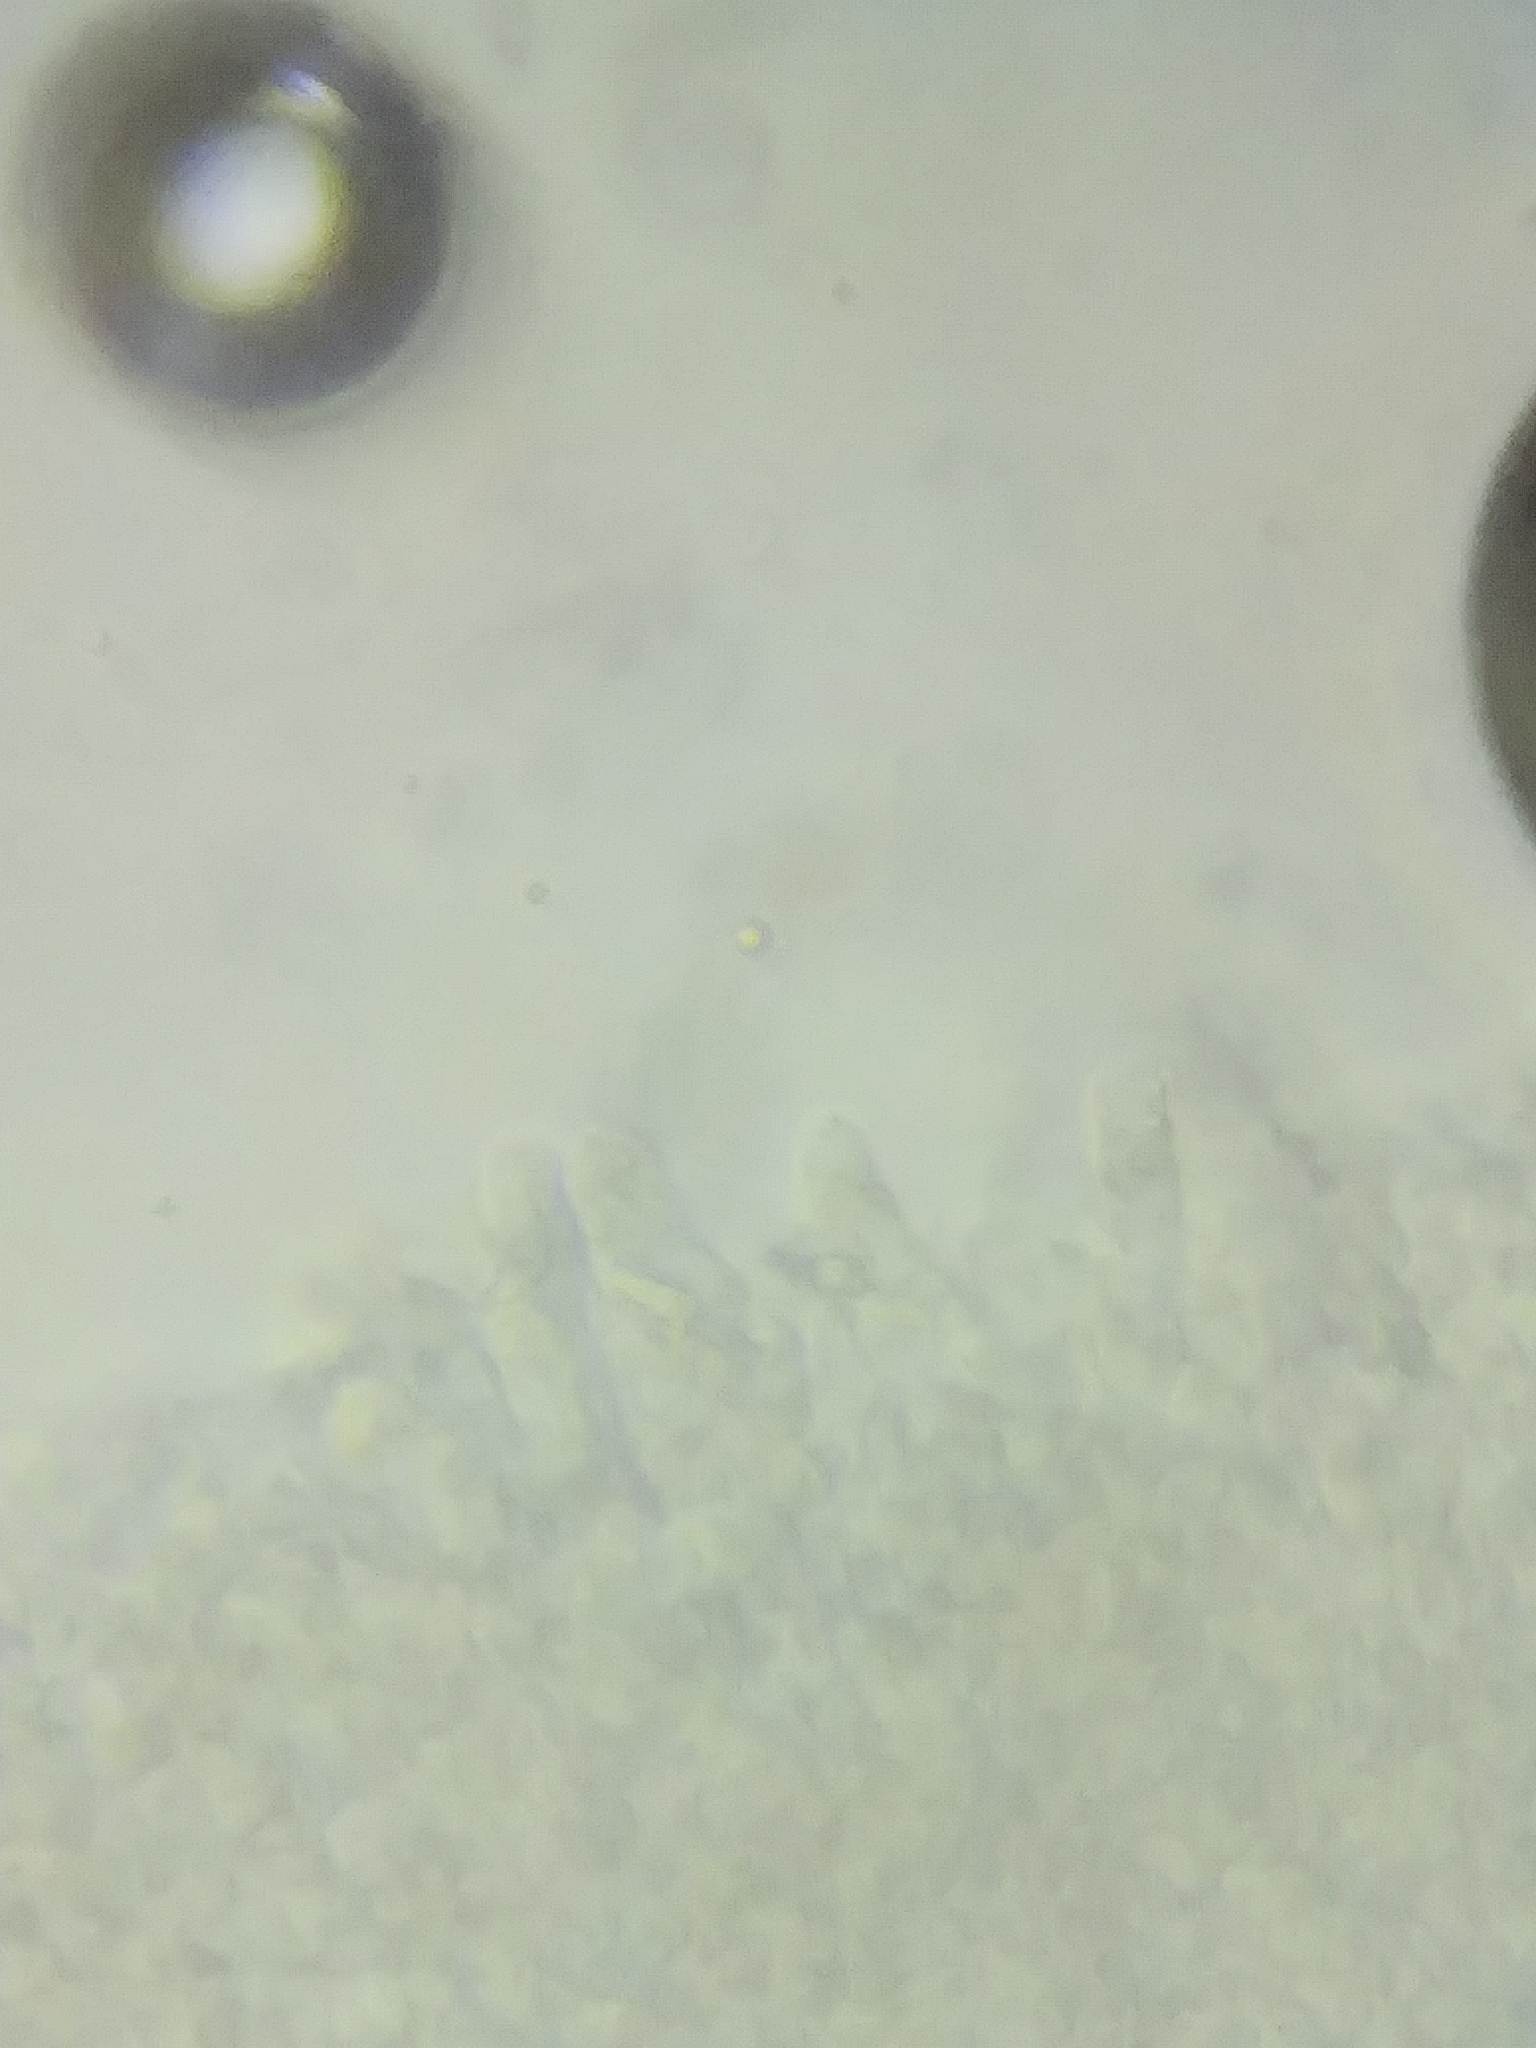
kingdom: Fungi
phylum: Basidiomycota
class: Agaricomycetes
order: Agaricales
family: Pleurotaceae
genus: Pleurotus
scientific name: Pleurotus dryinus
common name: Veiled oyster
